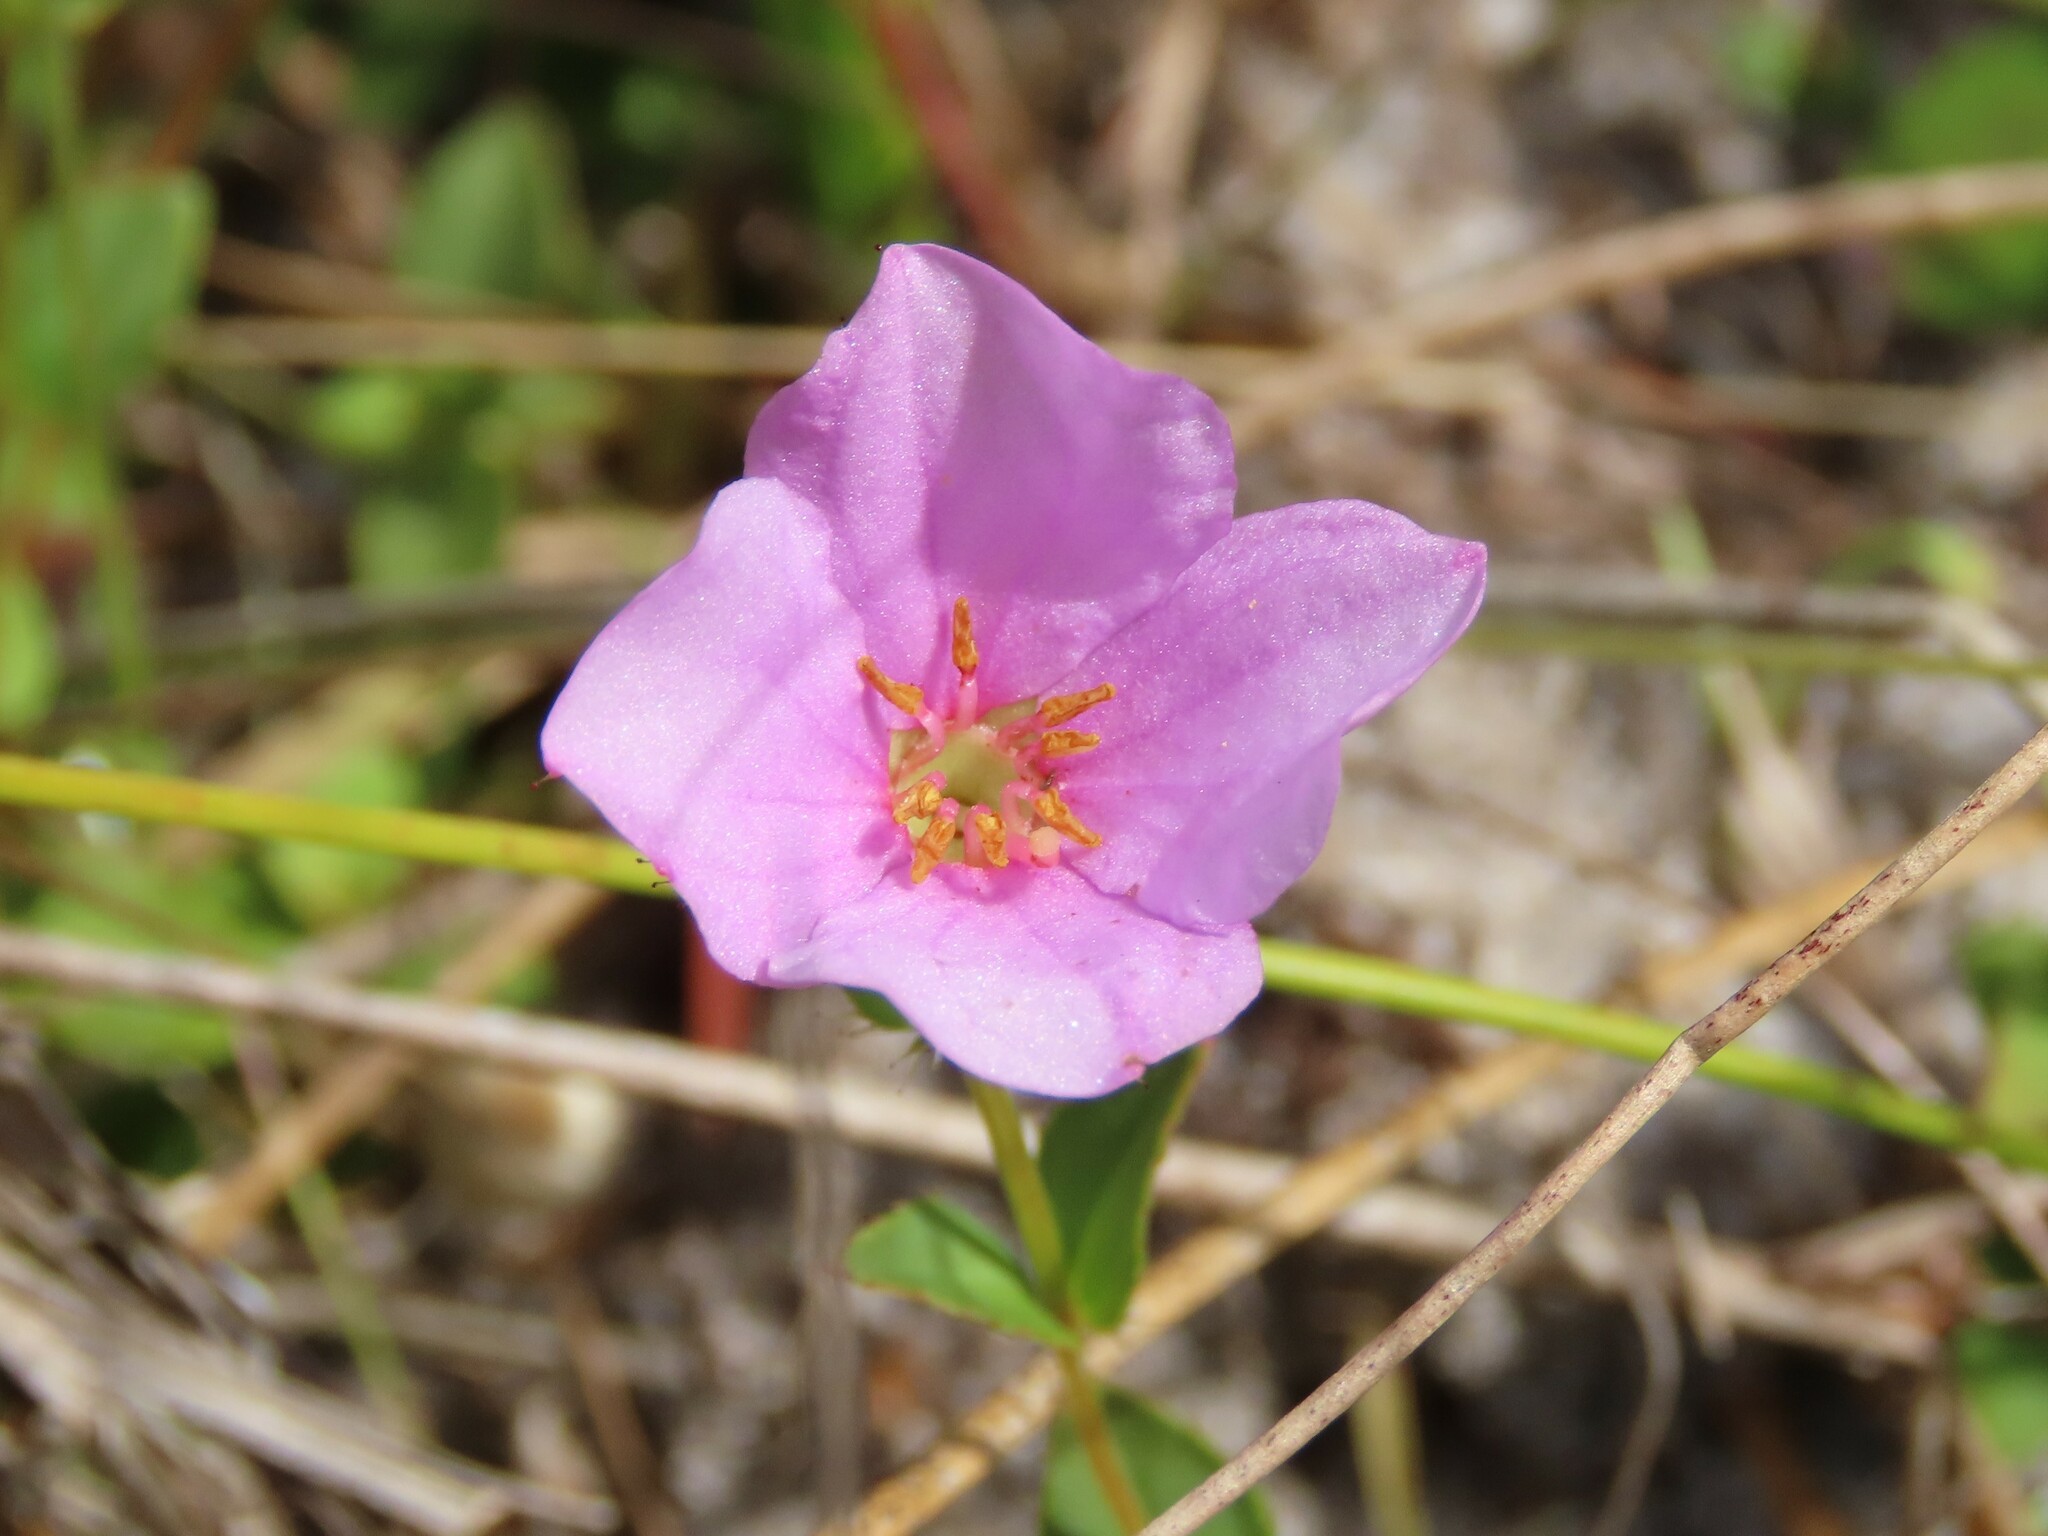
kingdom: Plantae
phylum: Tracheophyta
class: Magnoliopsida
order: Myrtales
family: Melastomataceae
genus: Rhexia
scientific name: Rhexia nuttallii
